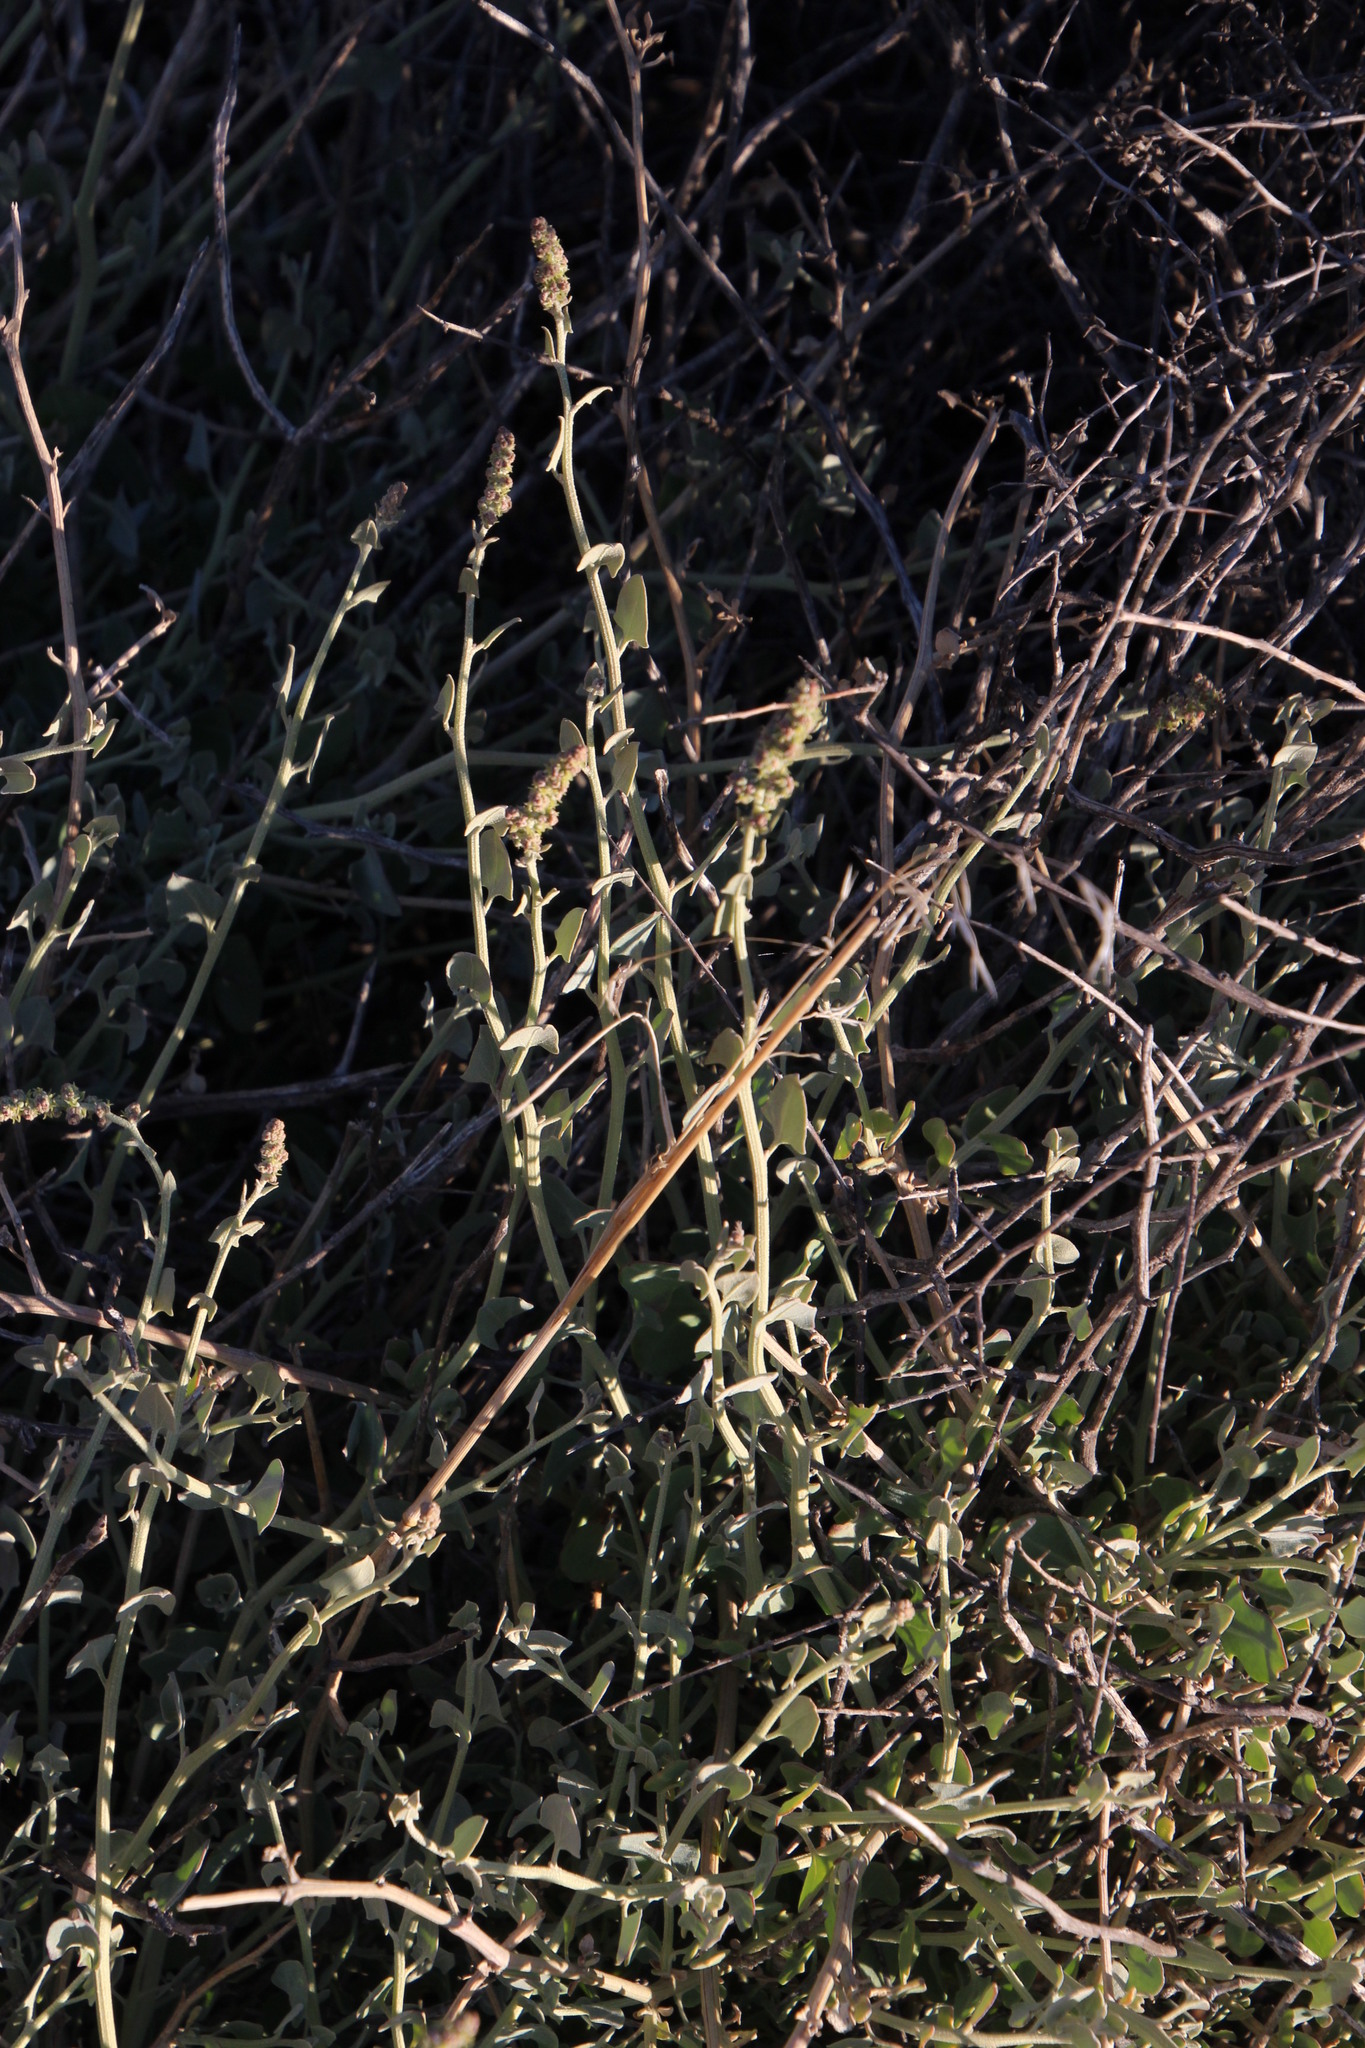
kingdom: Plantae
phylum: Tracheophyta
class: Magnoliopsida
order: Caryophyllales
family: Amaranthaceae
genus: Atriplex
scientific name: Atriplex vestita
